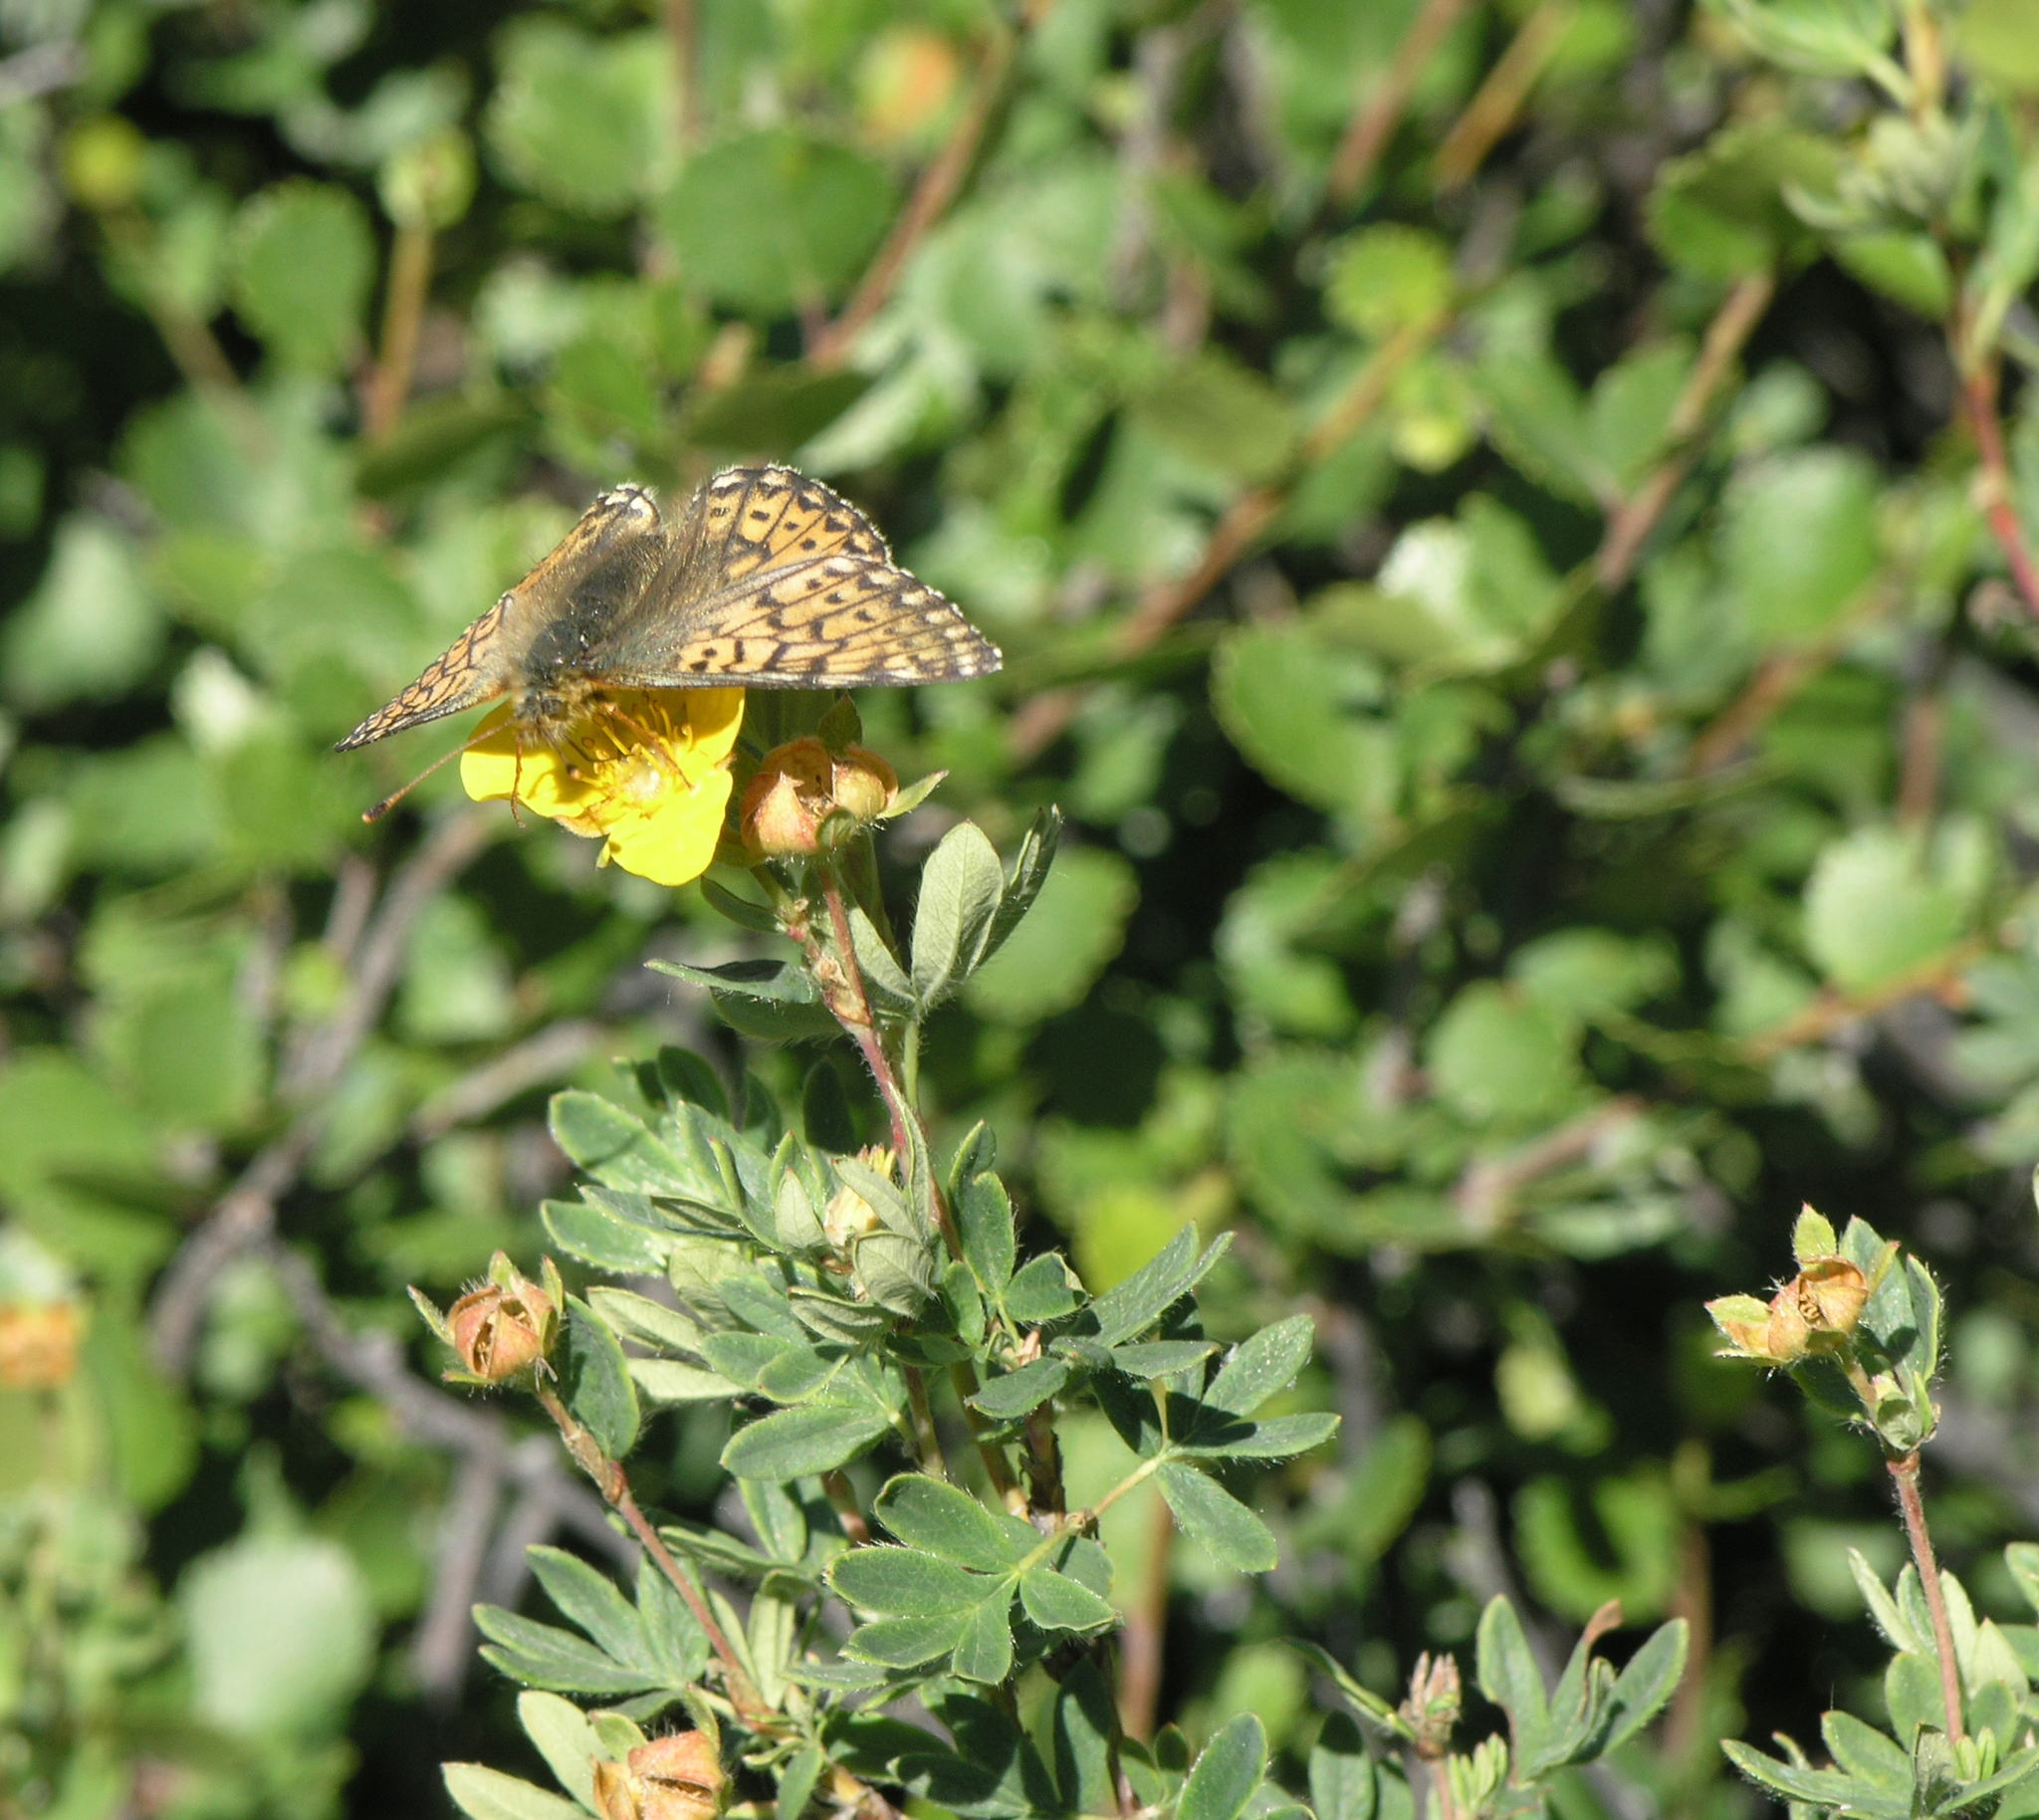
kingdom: Plantae
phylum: Tracheophyta
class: Magnoliopsida
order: Rosales
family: Rosaceae
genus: Dasiphora
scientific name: Dasiphora fruticosa
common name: Shrubby cinquefoil
